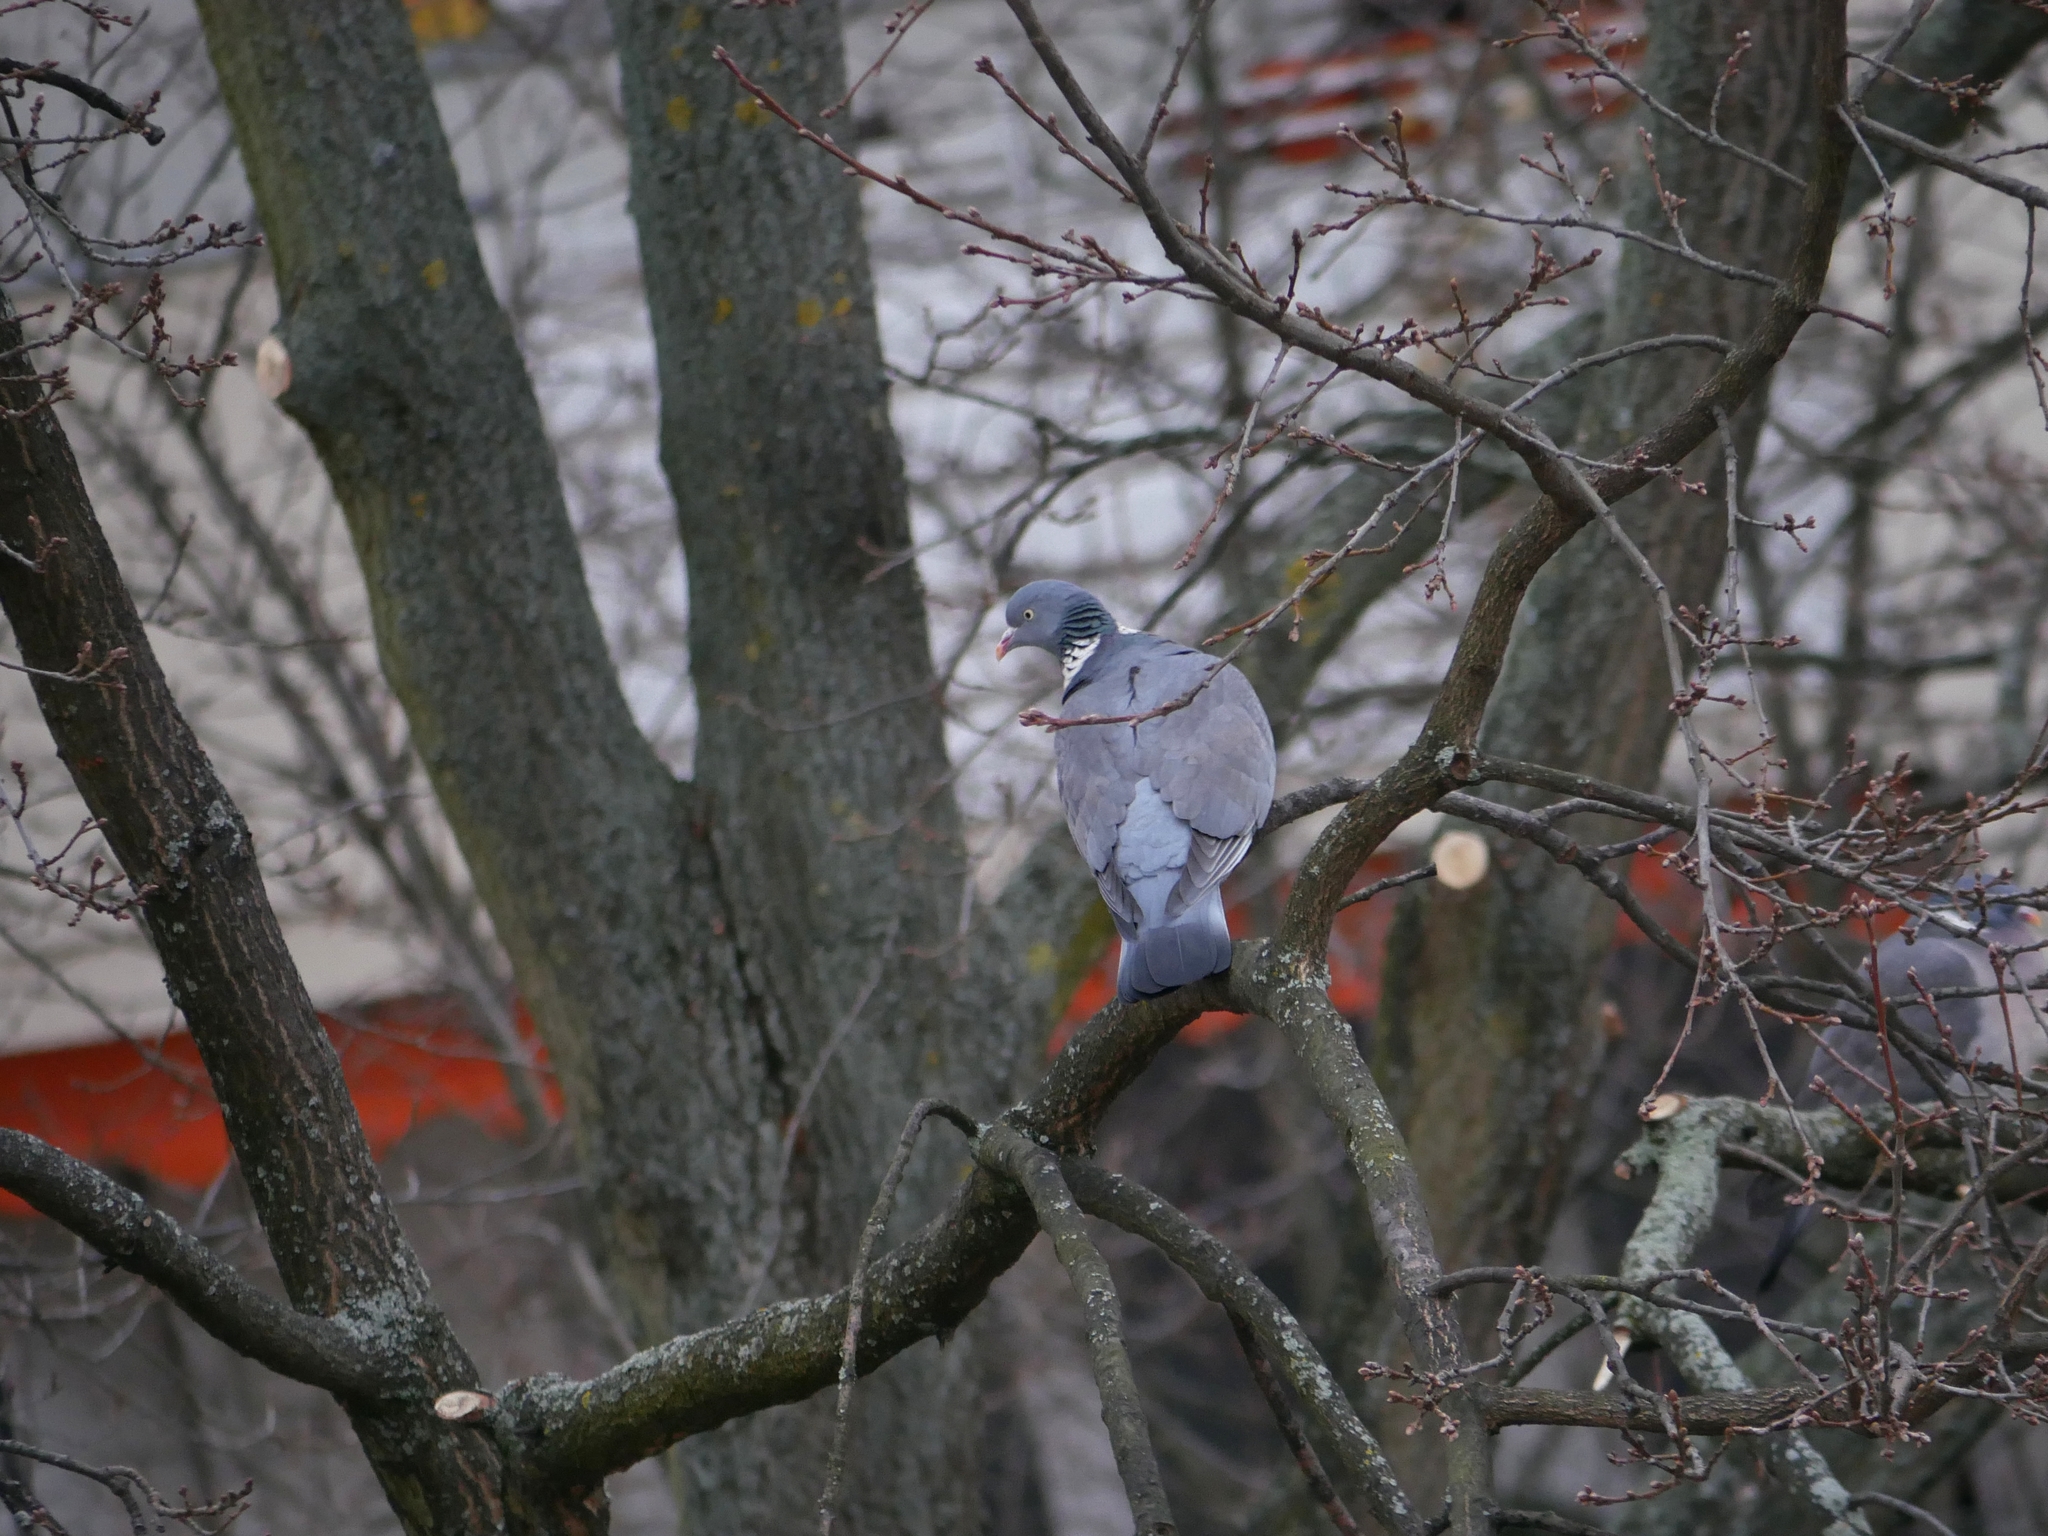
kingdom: Animalia
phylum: Chordata
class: Aves
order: Columbiformes
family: Columbidae
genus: Columba
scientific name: Columba palumbus
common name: Common wood pigeon
